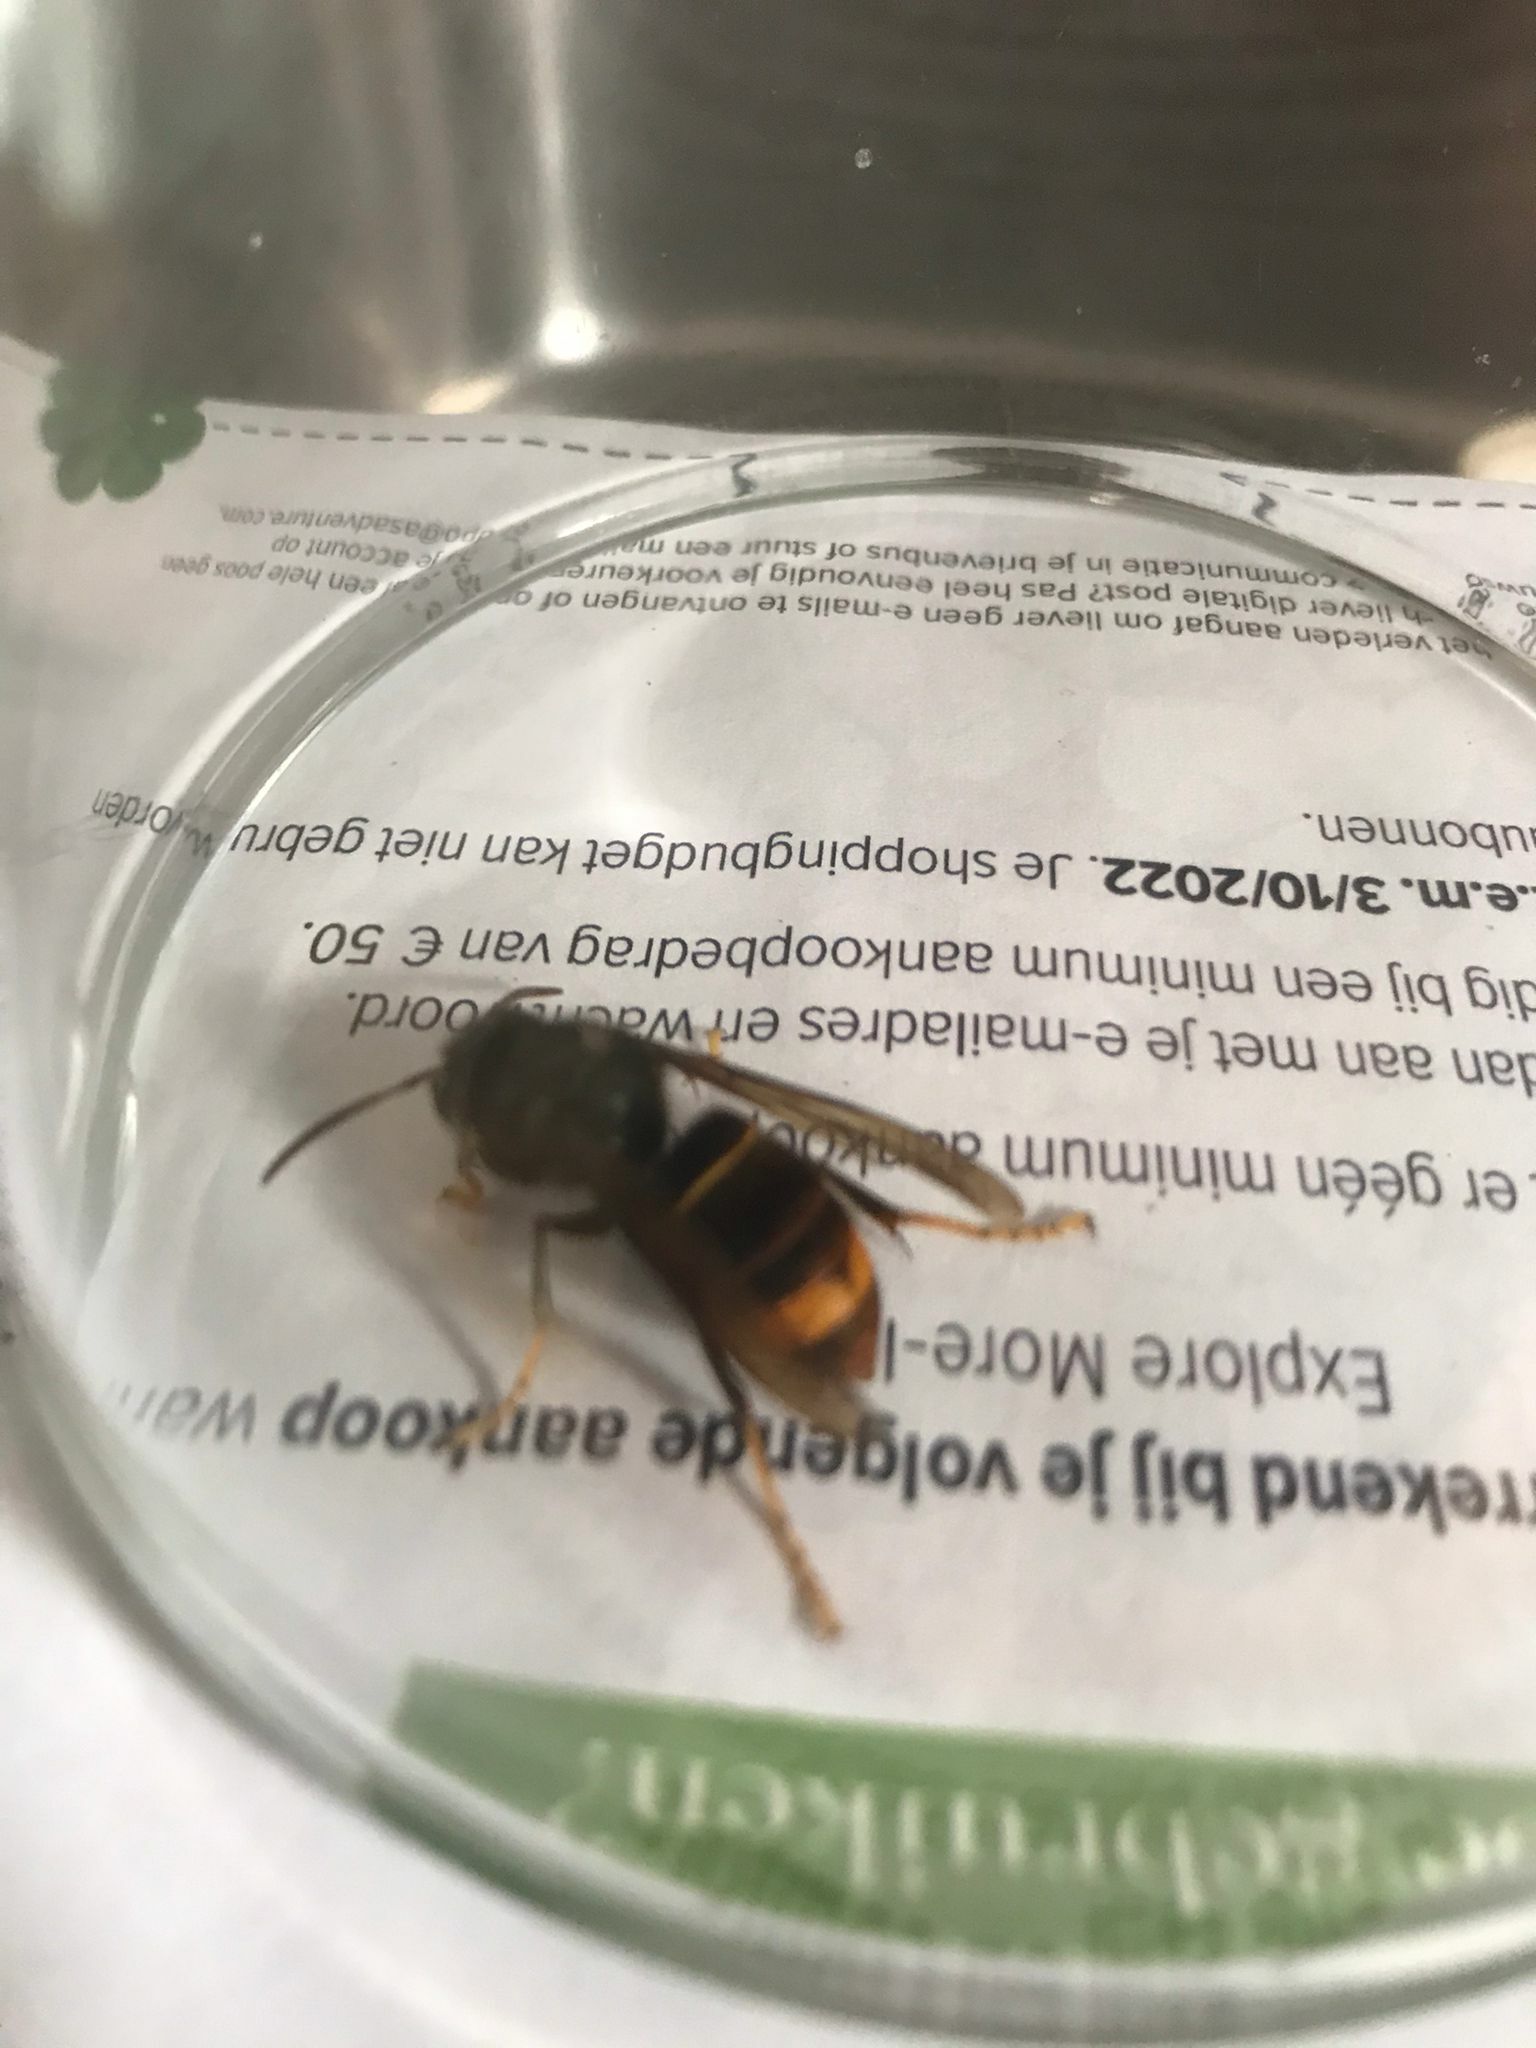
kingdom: Animalia
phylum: Arthropoda
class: Insecta
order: Hymenoptera
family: Vespidae
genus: Vespa
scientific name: Vespa velutina
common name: Asian hornet
